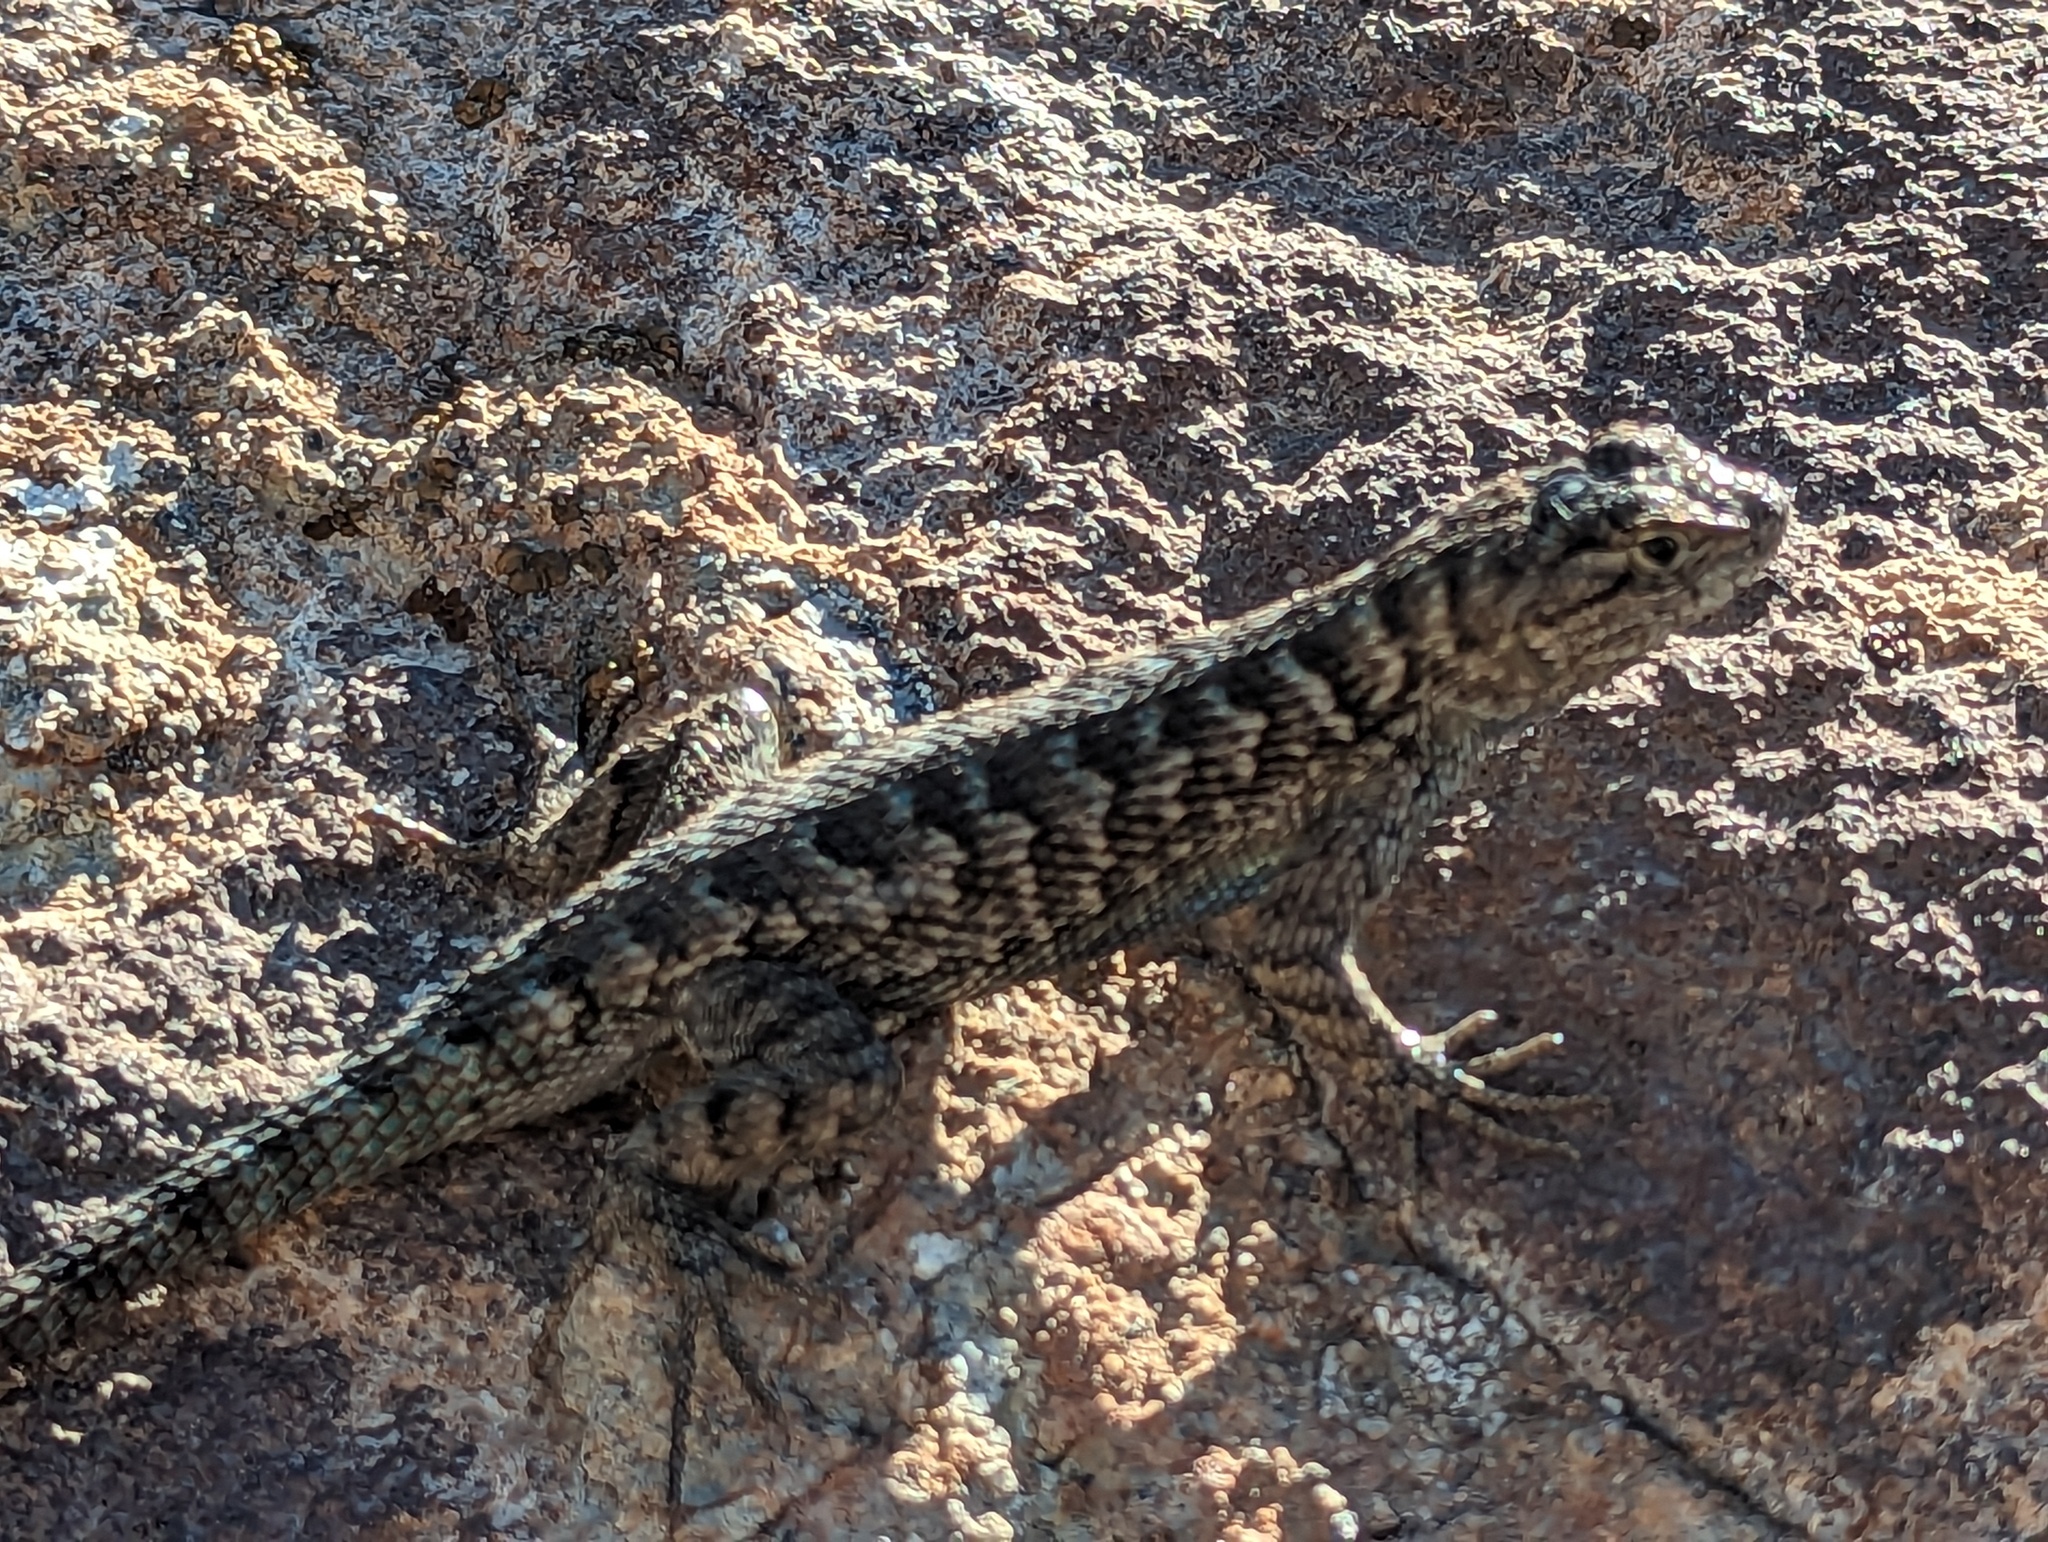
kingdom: Animalia
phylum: Chordata
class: Squamata
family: Phrynosomatidae
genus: Sceloporus
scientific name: Sceloporus occidentalis
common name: Western fence lizard
